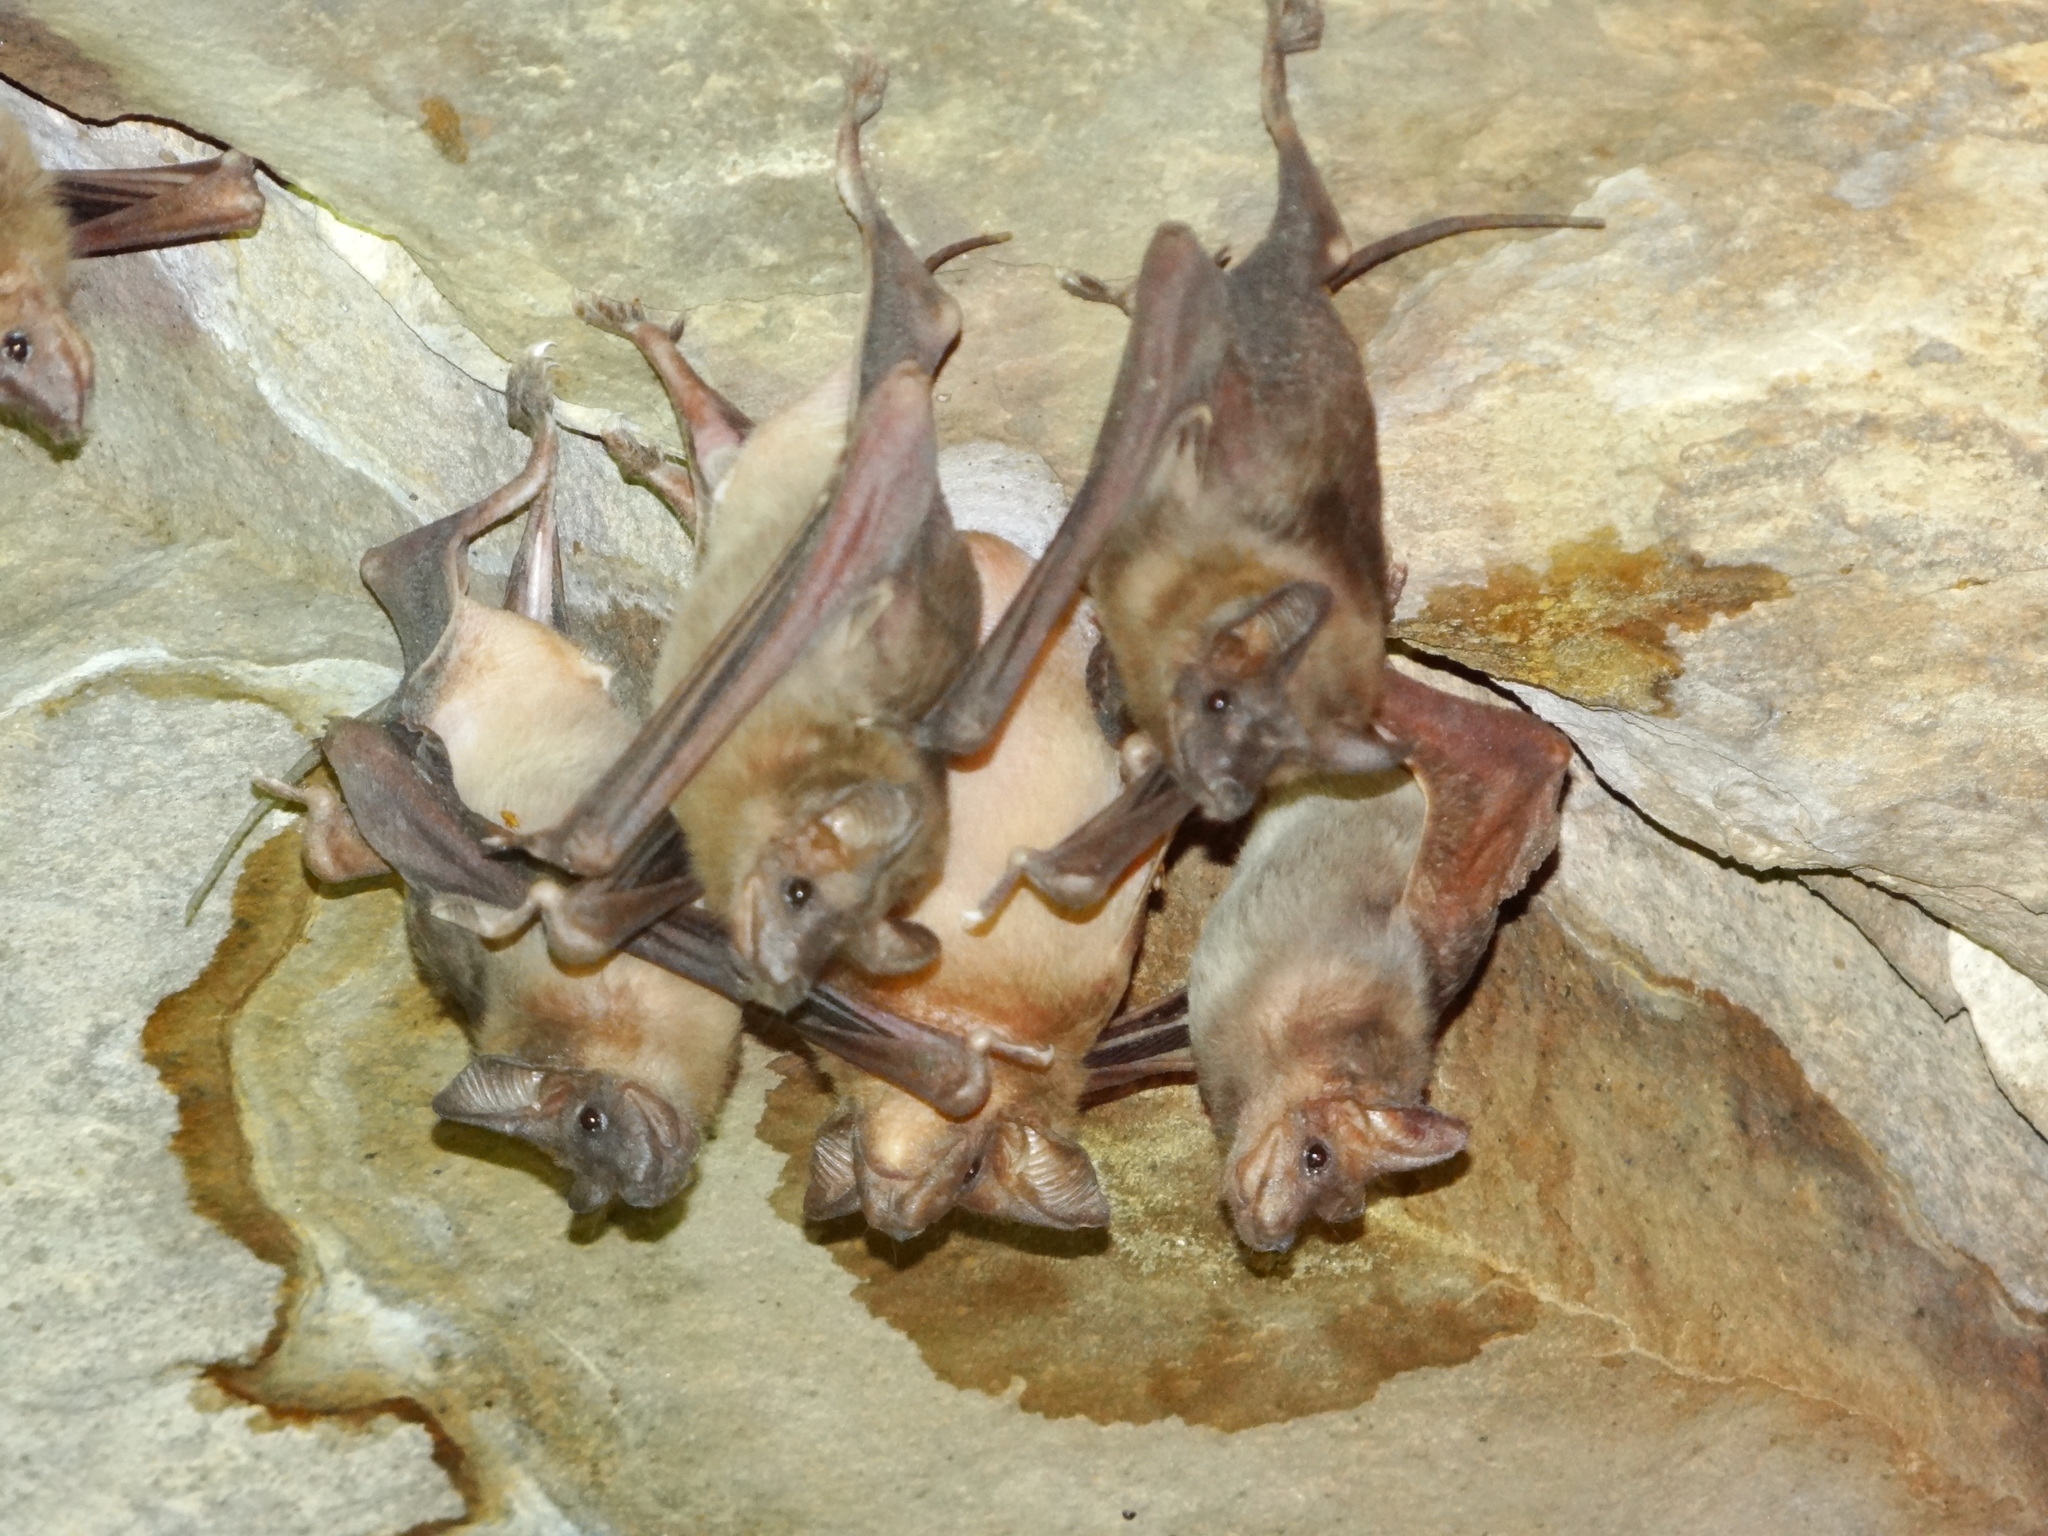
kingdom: Animalia
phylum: Chordata
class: Mammalia
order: Chiroptera
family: Rhinopomatidae
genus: Rhinopoma
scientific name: Rhinopoma microphyllum
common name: Greater mouse-tailed bat
